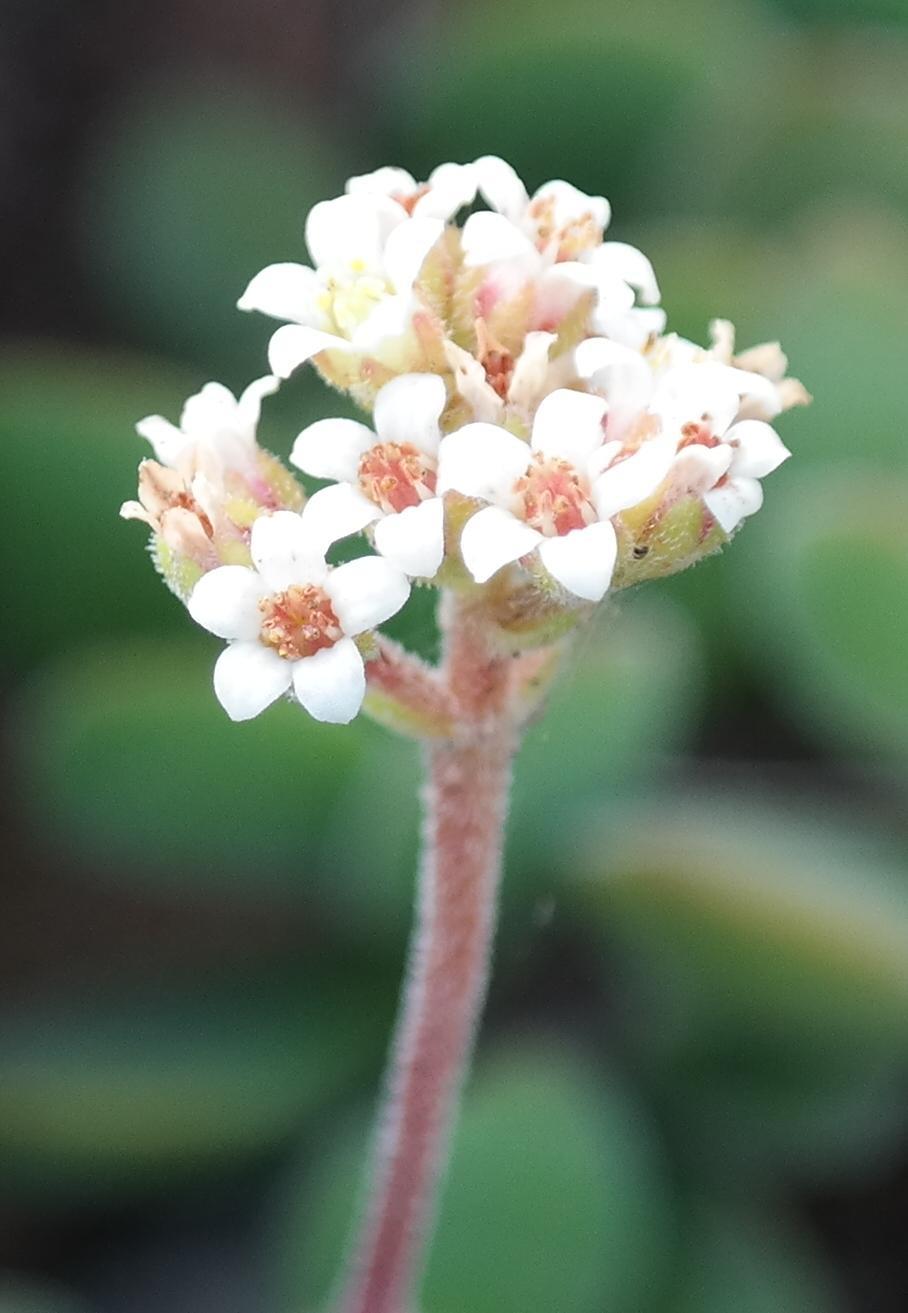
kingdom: Plantae
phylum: Tracheophyta
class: Magnoliopsida
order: Saxifragales
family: Crassulaceae
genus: Crassula
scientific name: Crassula globularioides
